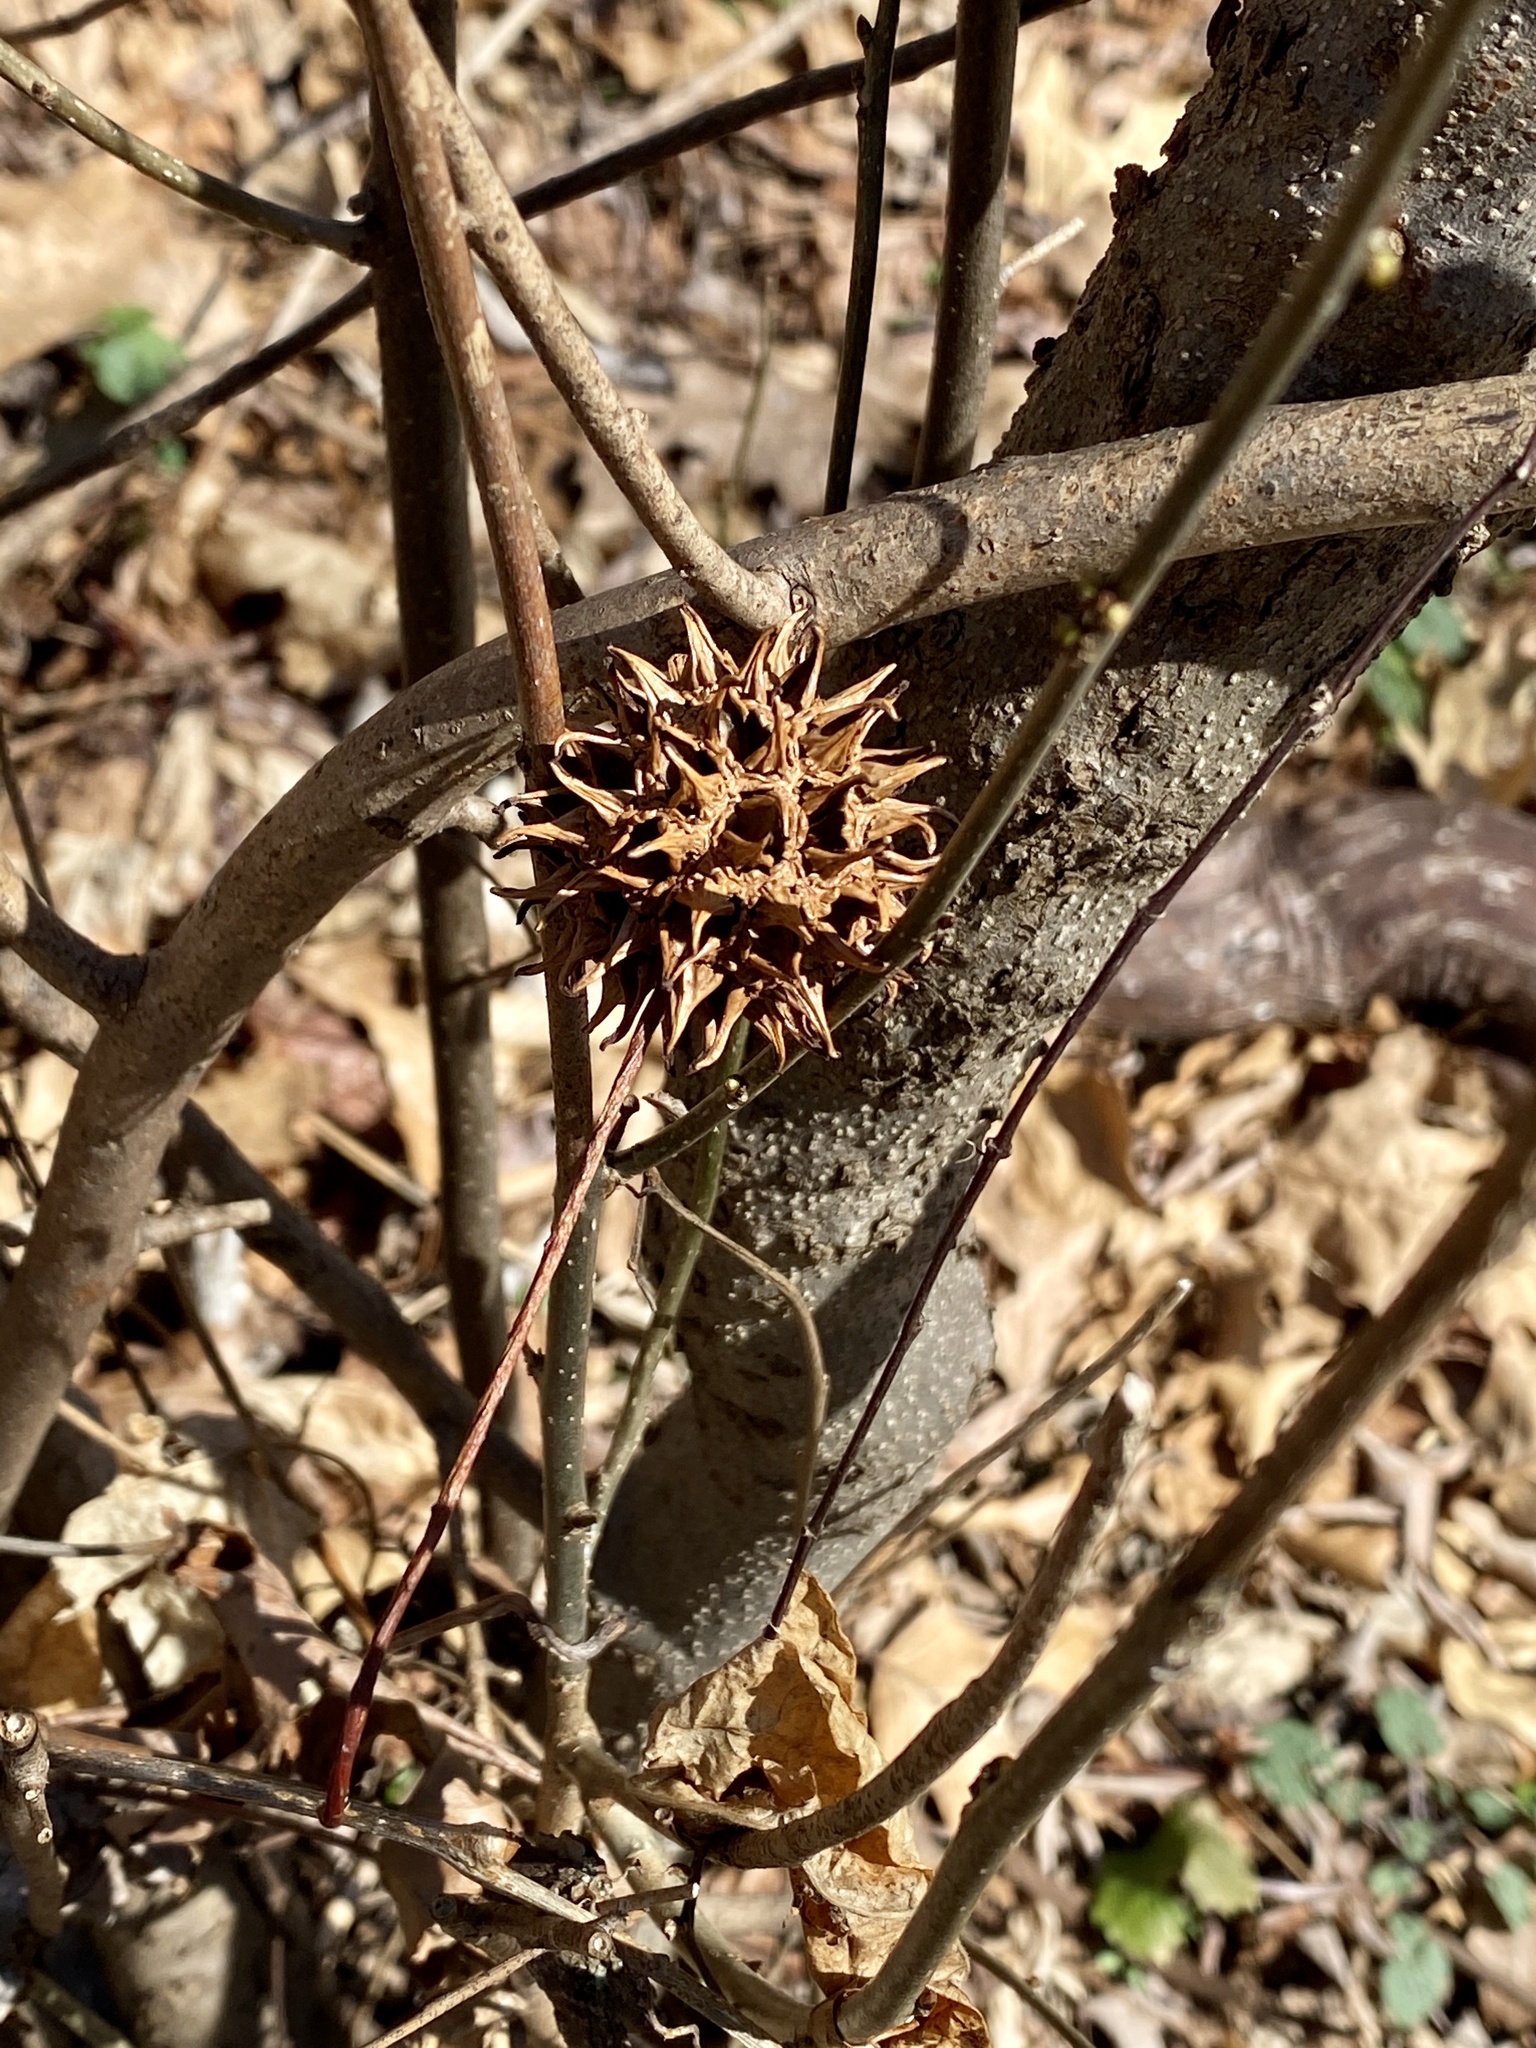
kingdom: Plantae
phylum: Tracheophyta
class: Magnoliopsida
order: Saxifragales
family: Altingiaceae
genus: Liquidambar
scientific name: Liquidambar styraciflua
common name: Sweet gum
